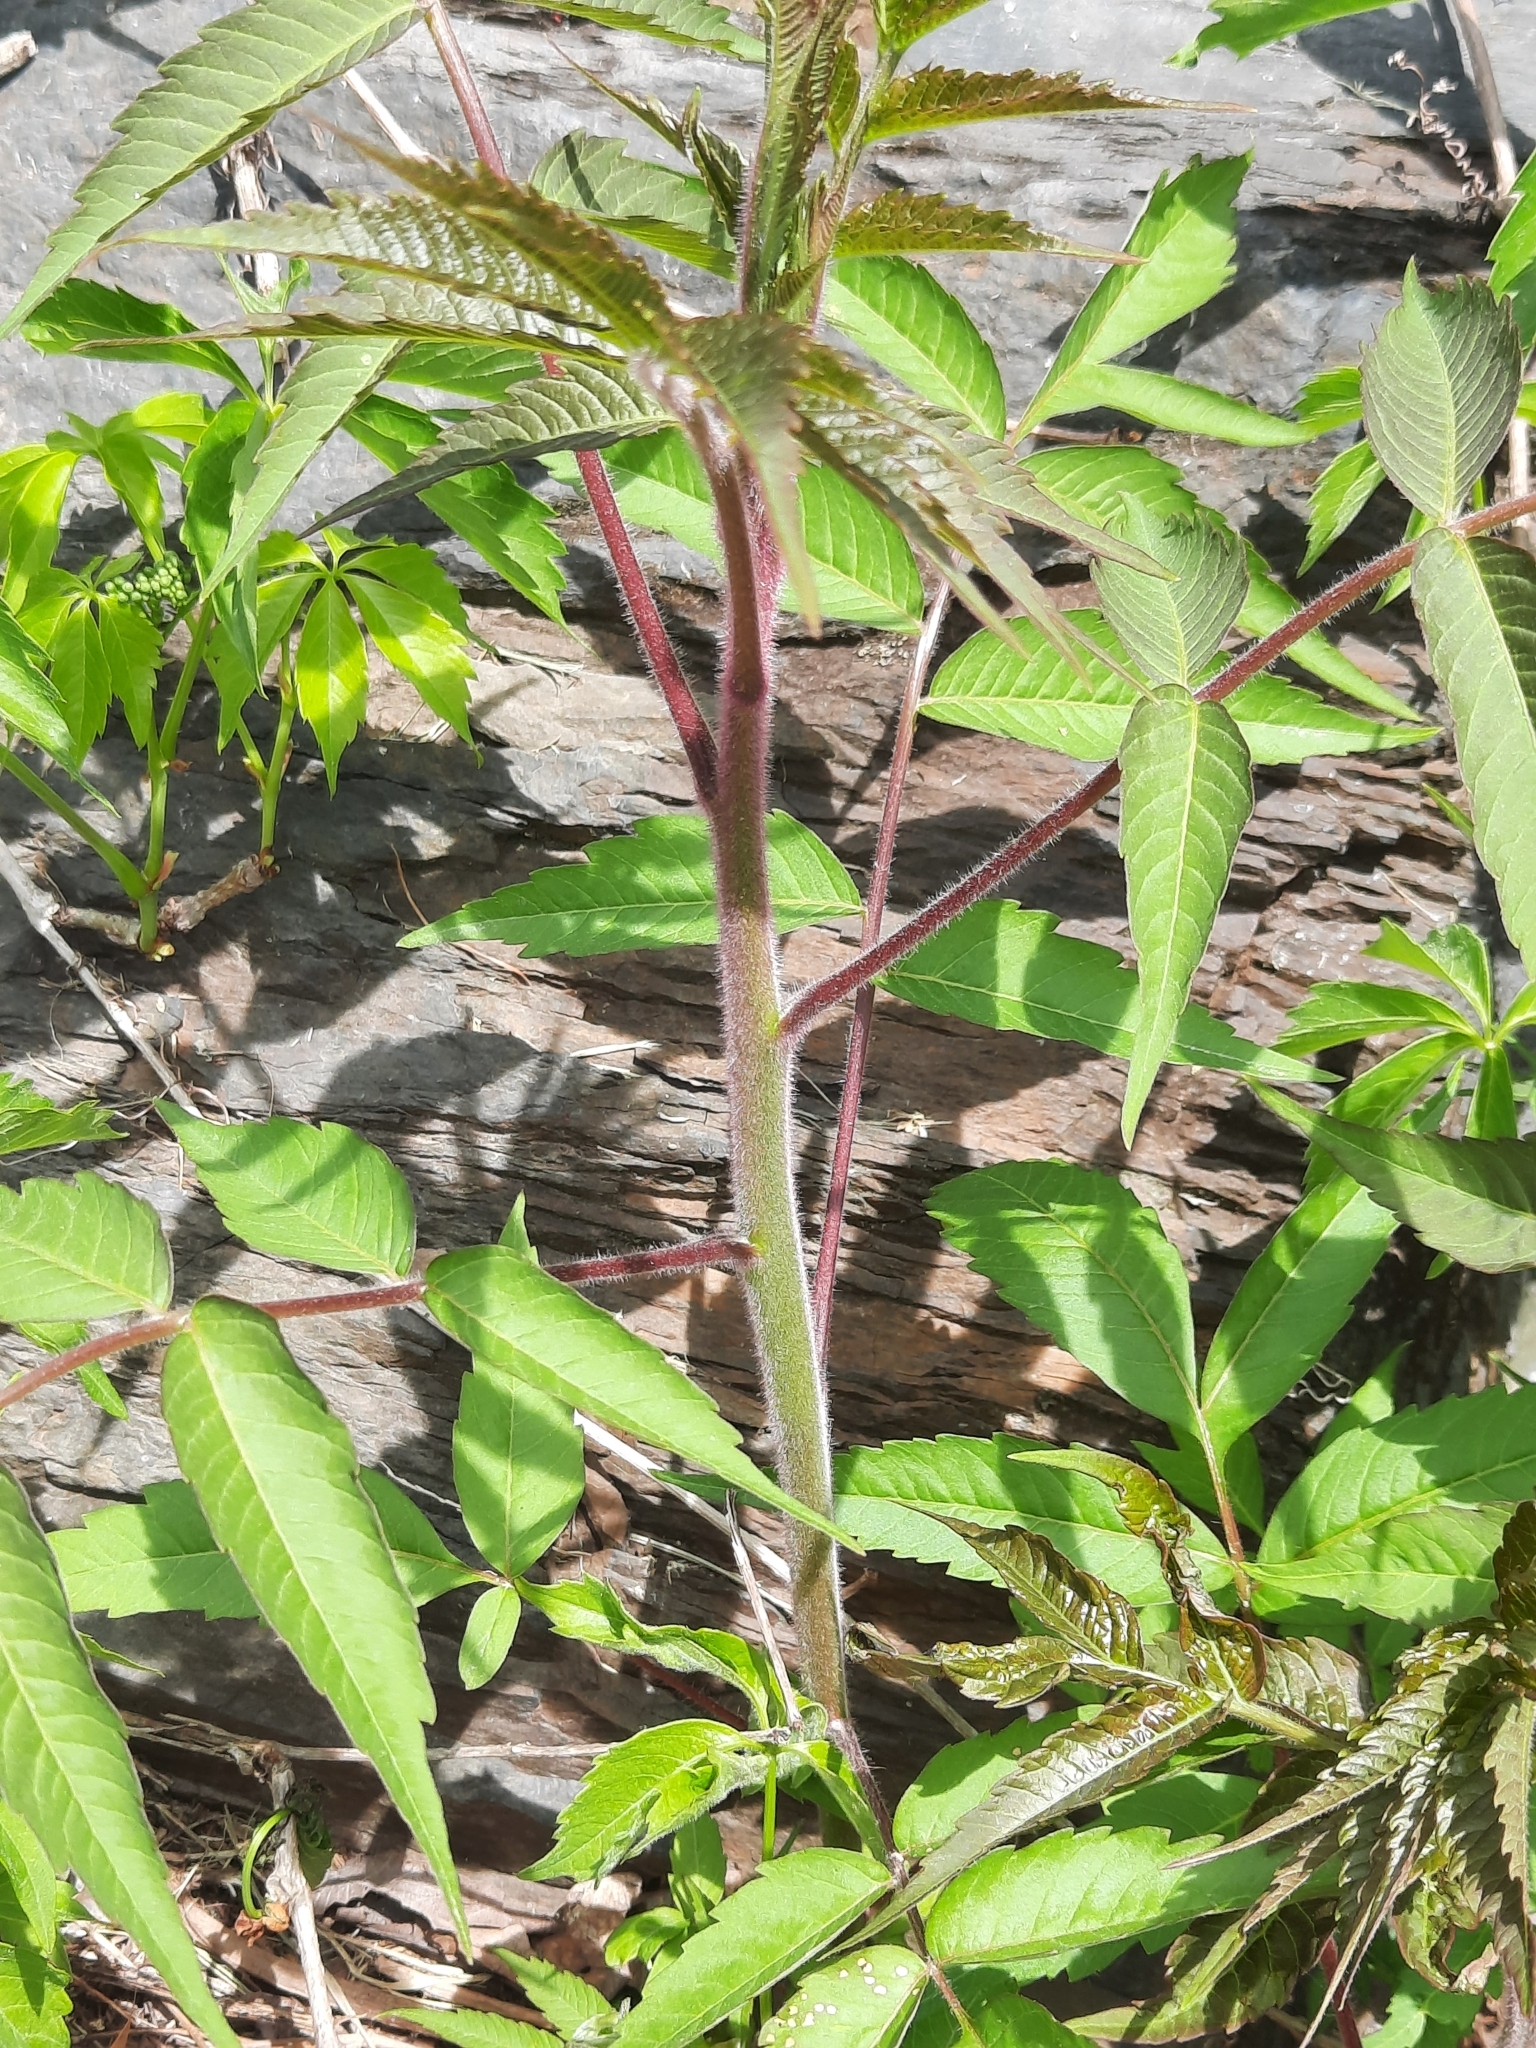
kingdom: Plantae
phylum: Tracheophyta
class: Magnoliopsida
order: Sapindales
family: Anacardiaceae
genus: Rhus
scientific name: Rhus typhina
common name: Staghorn sumac
